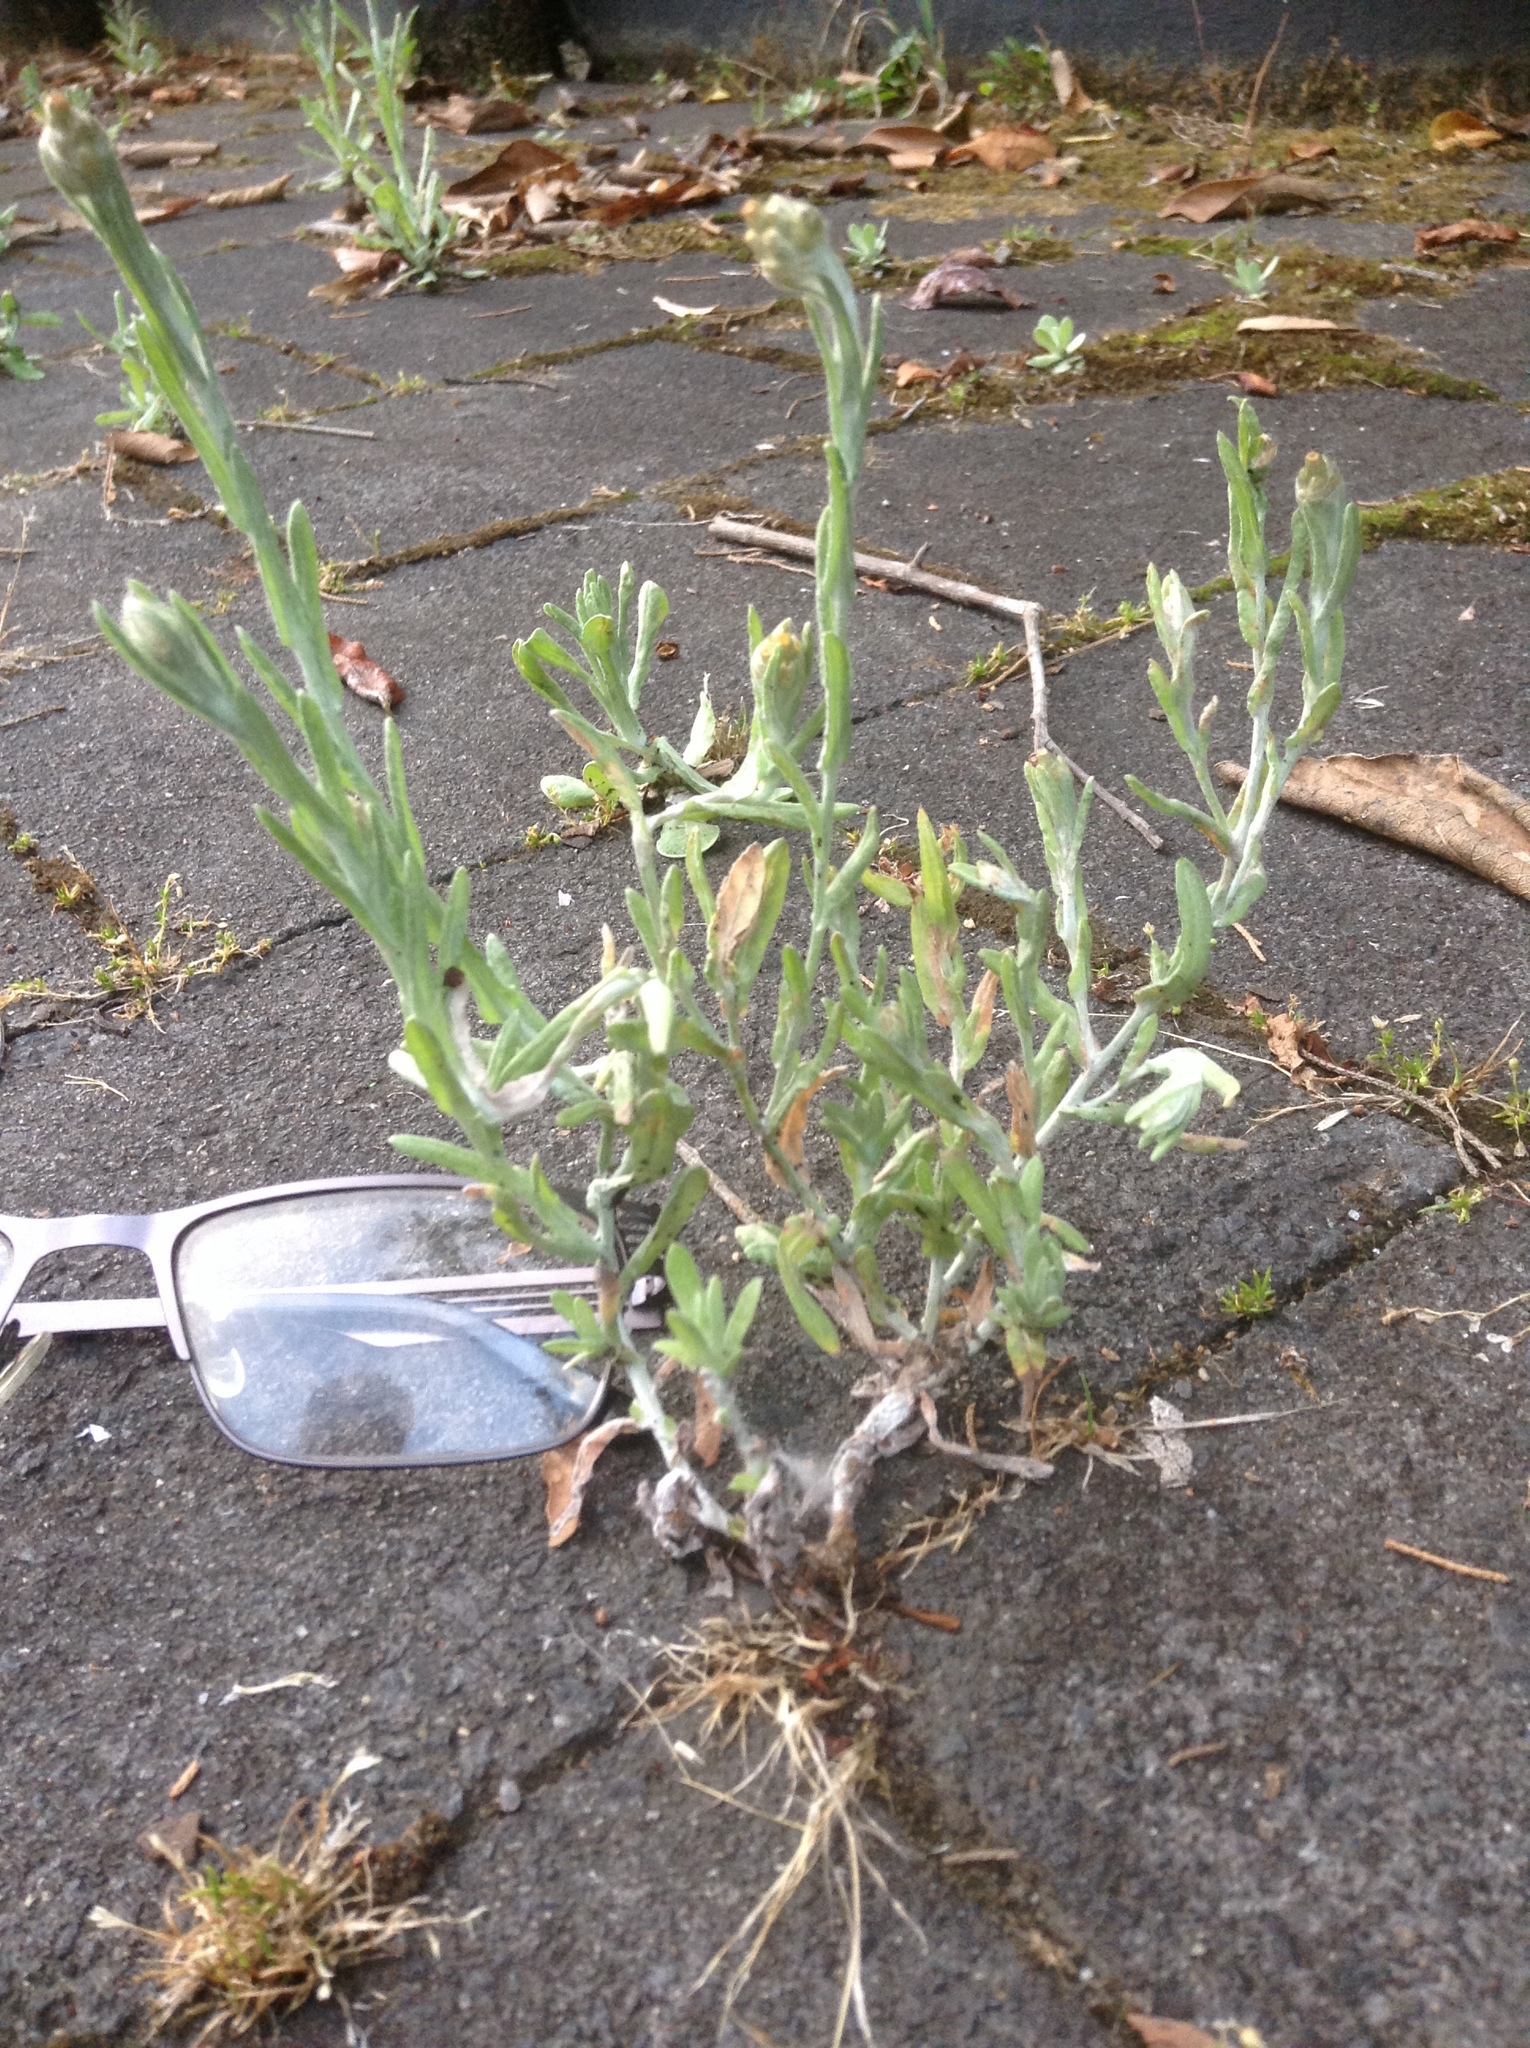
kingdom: Plantae
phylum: Tracheophyta
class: Magnoliopsida
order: Asterales
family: Asteraceae
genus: Helichrysum
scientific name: Helichrysum luteoalbum
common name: Daisy
